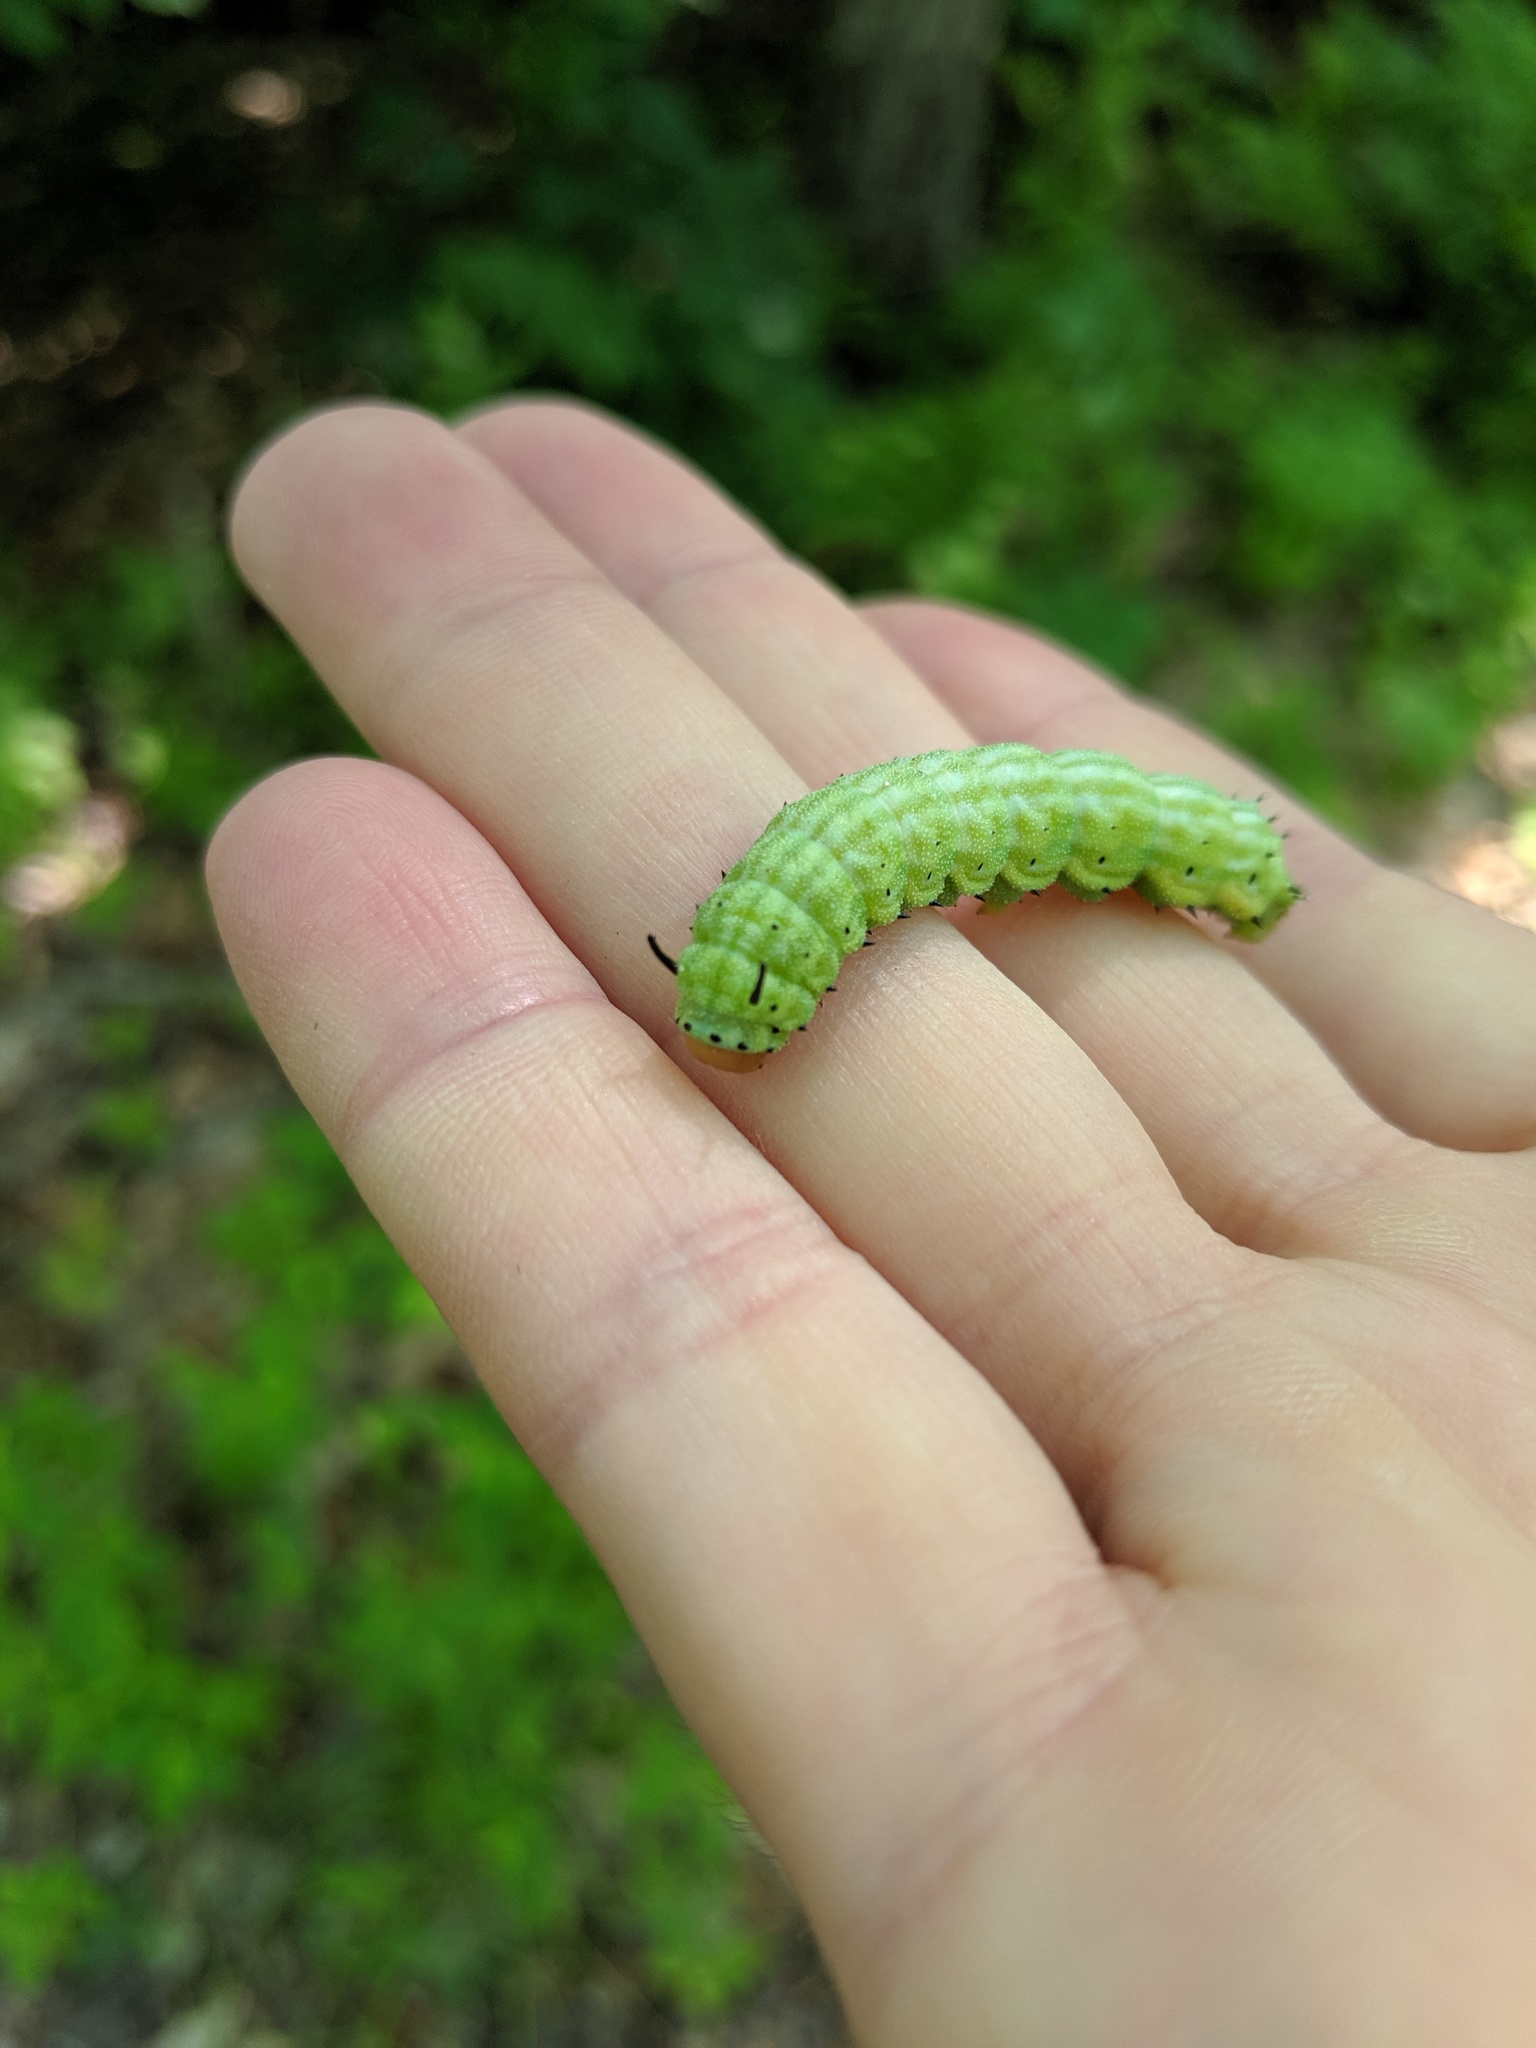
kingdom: Animalia
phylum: Arthropoda
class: Insecta
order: Lepidoptera
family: Saturniidae
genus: Dryocampa
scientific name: Dryocampa rubicunda
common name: Rosy maple moth
